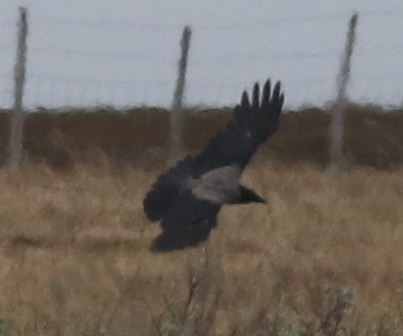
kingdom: Animalia
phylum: Chordata
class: Aves
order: Passeriformes
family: Corvidae
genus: Corvus
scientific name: Corvus cornix
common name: Hooded crow
